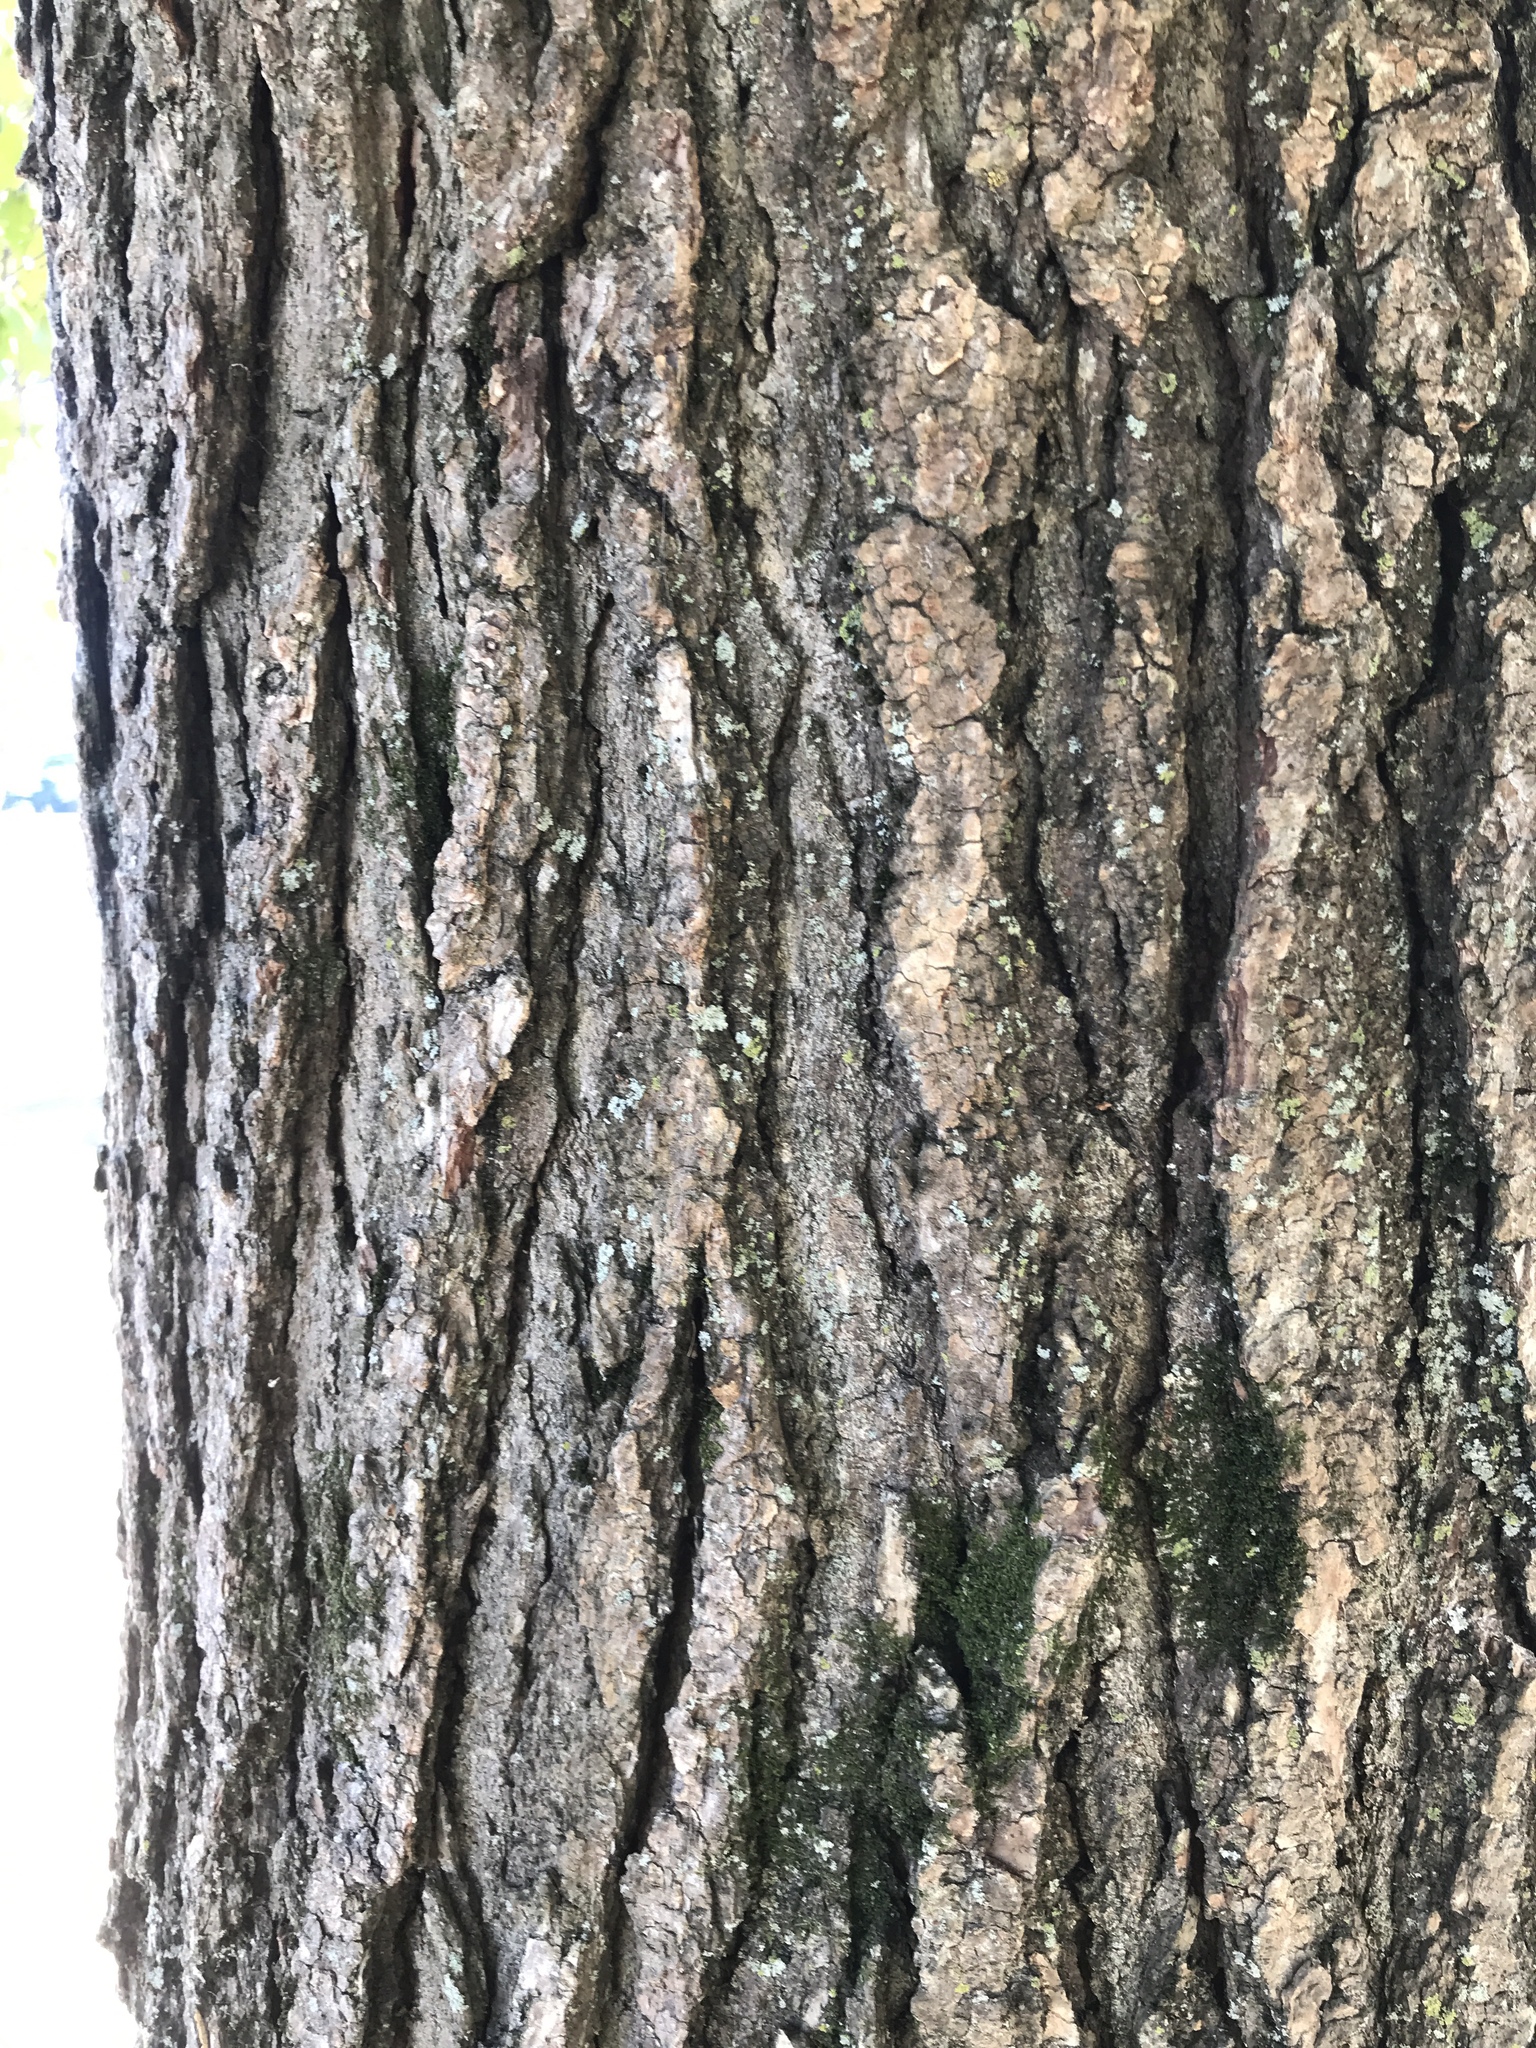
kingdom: Plantae
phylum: Tracheophyta
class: Magnoliopsida
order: Saxifragales
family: Altingiaceae
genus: Liquidambar
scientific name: Liquidambar styraciflua
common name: Sweet gum
